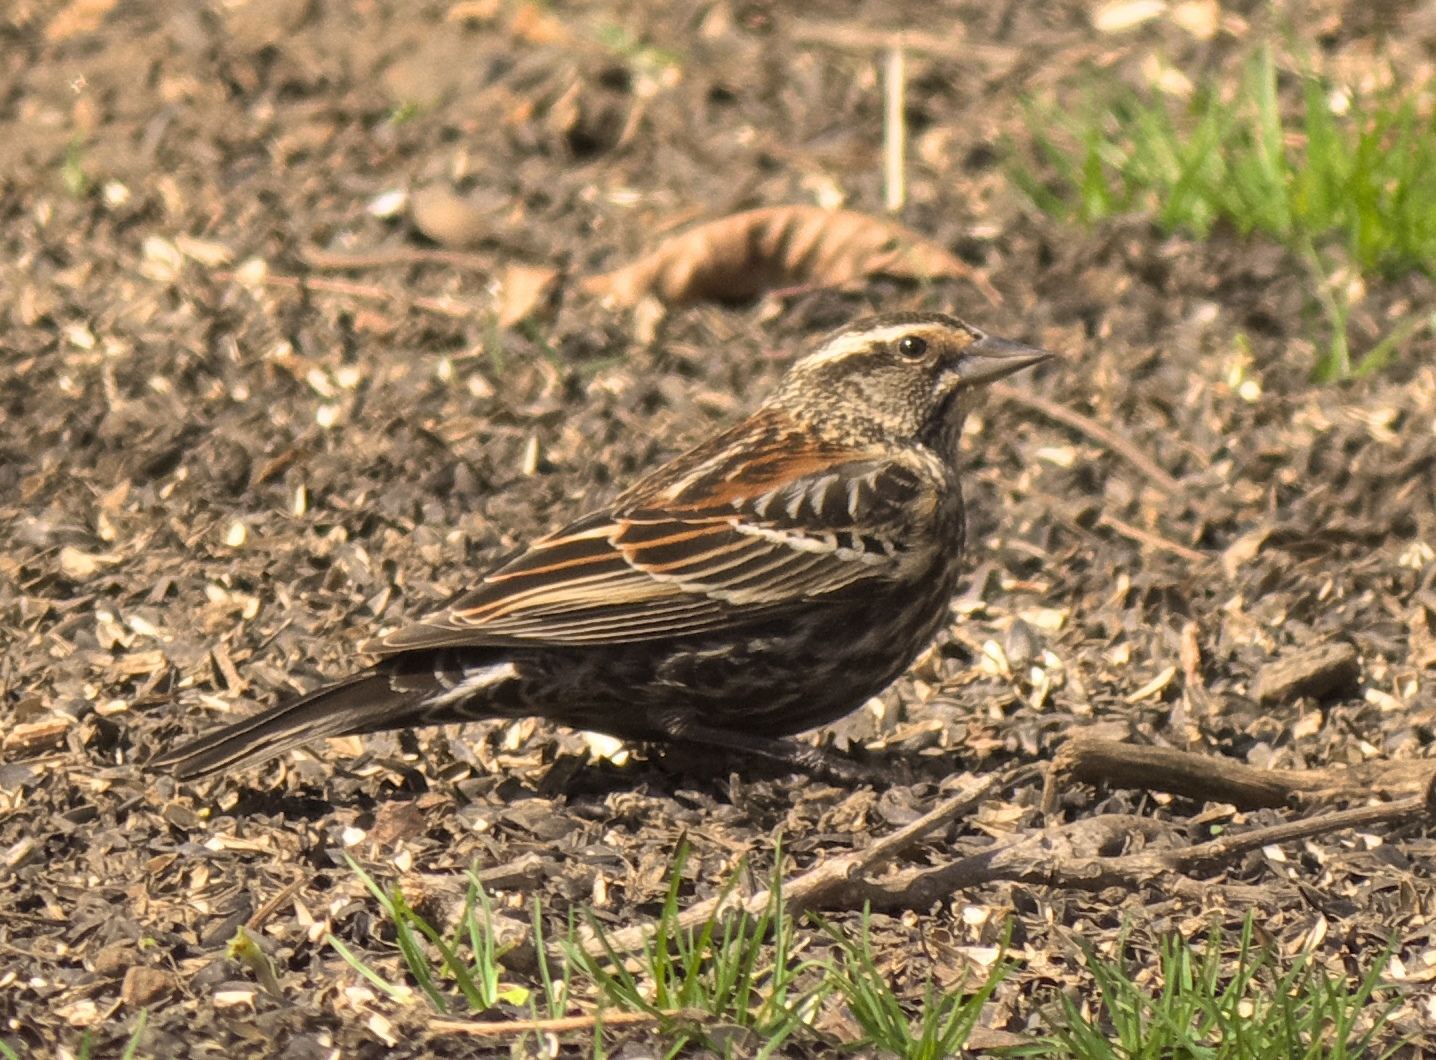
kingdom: Animalia
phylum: Chordata
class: Aves
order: Passeriformes
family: Icteridae
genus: Agelaius
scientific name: Agelaius phoeniceus
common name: Red-winged blackbird
